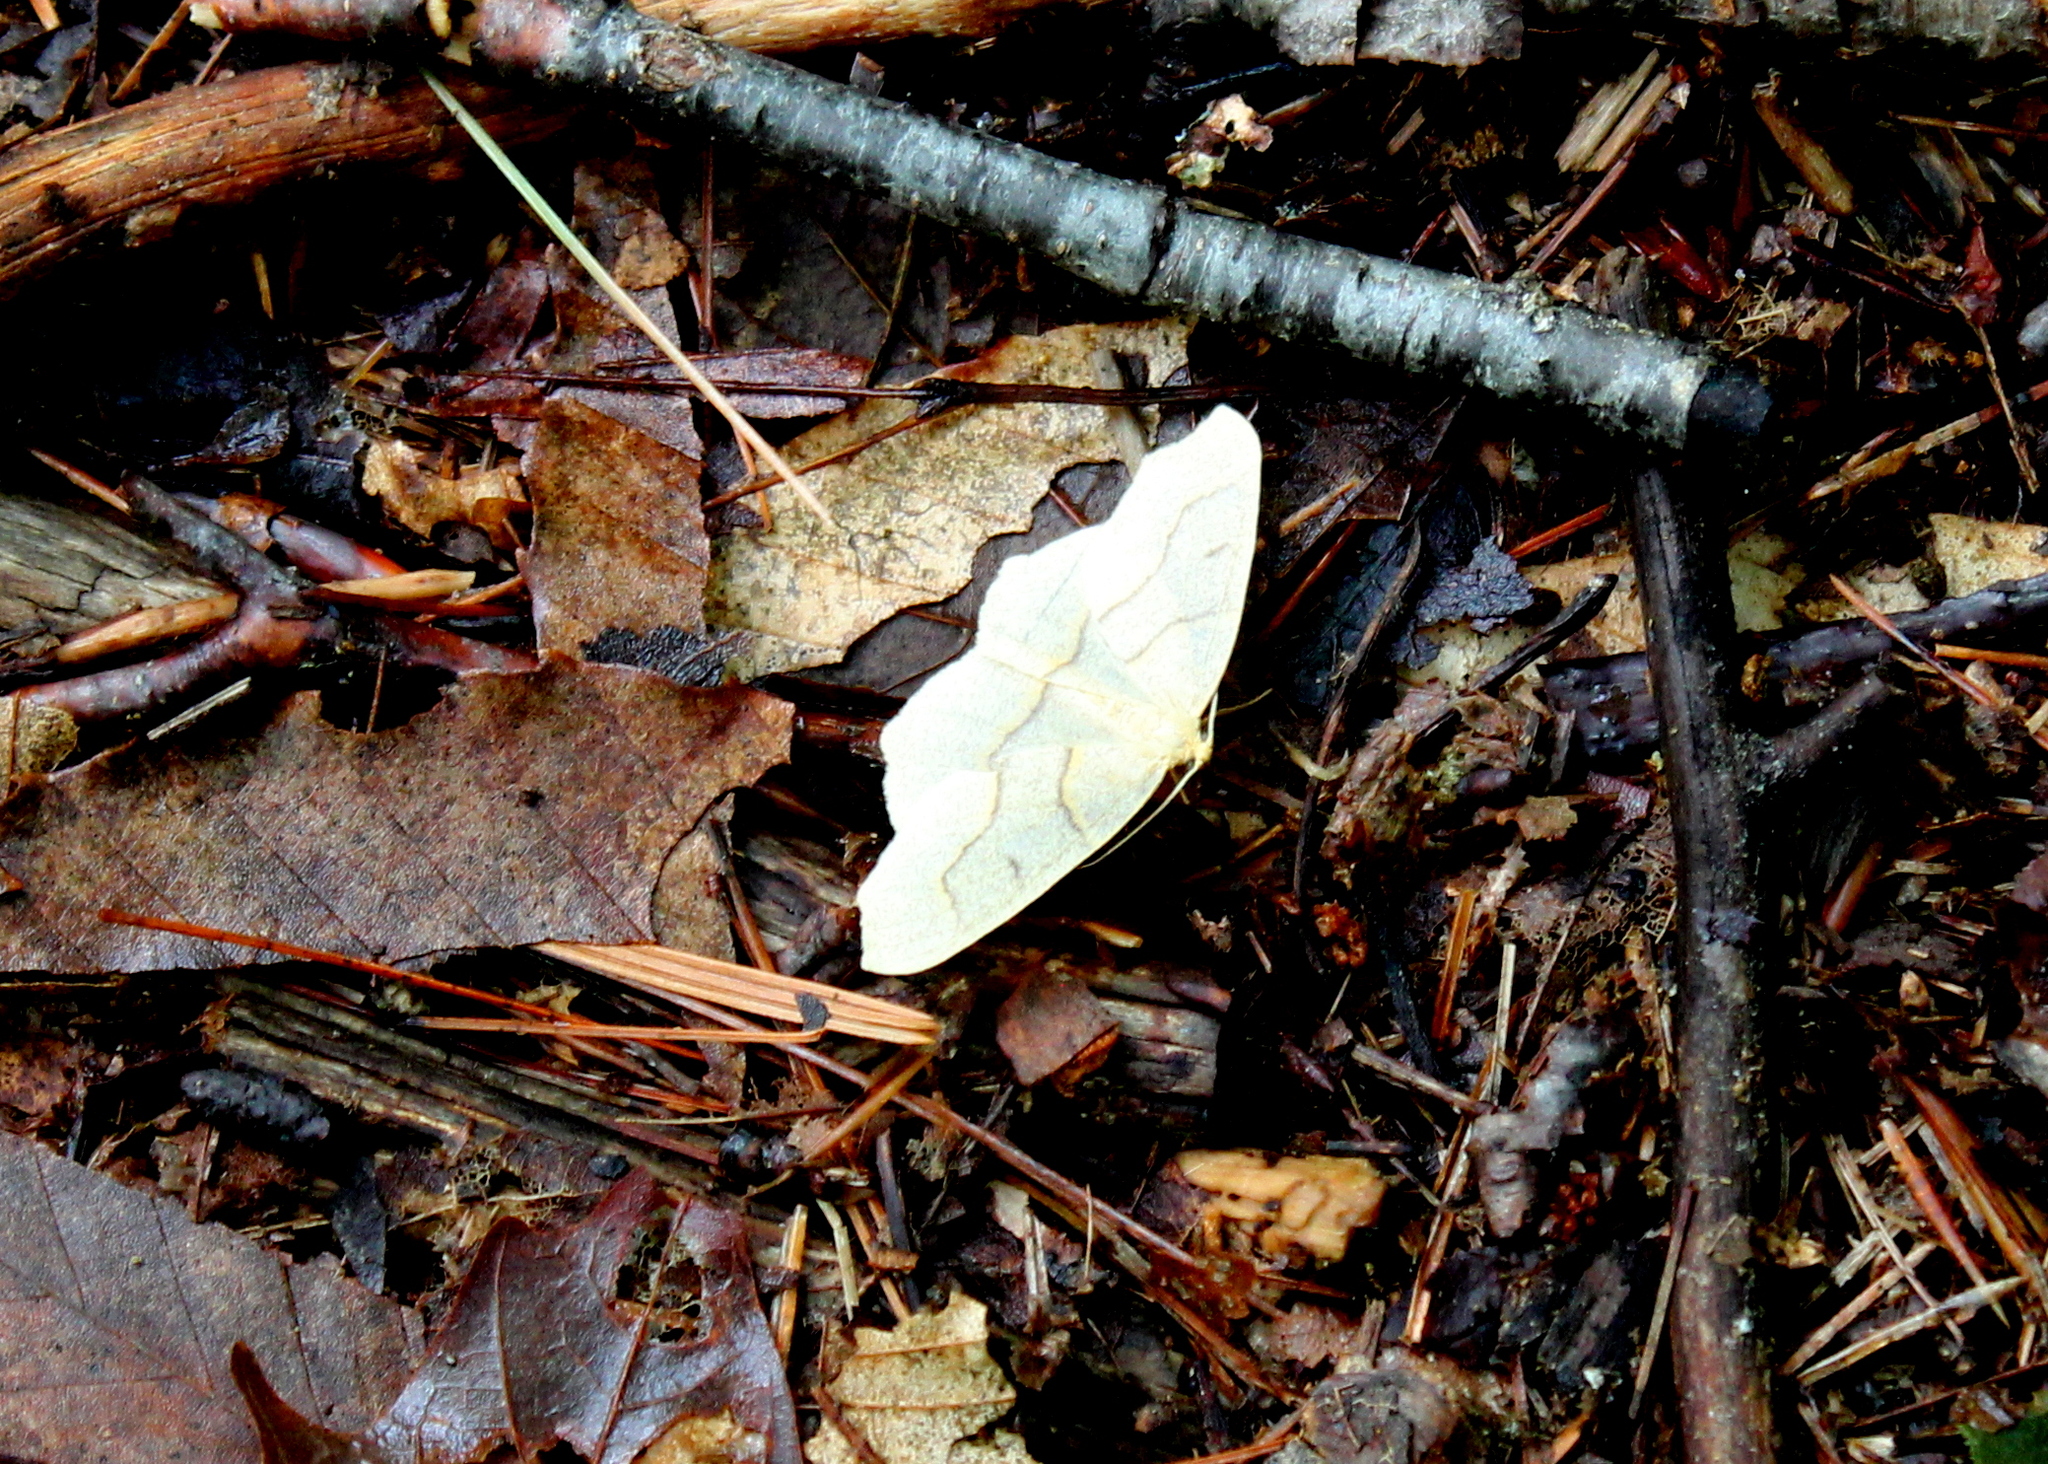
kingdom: Animalia
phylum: Arthropoda
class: Insecta
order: Lepidoptera
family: Geometridae
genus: Lambdina
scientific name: Lambdina fiscellaria
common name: Hemlock looper
